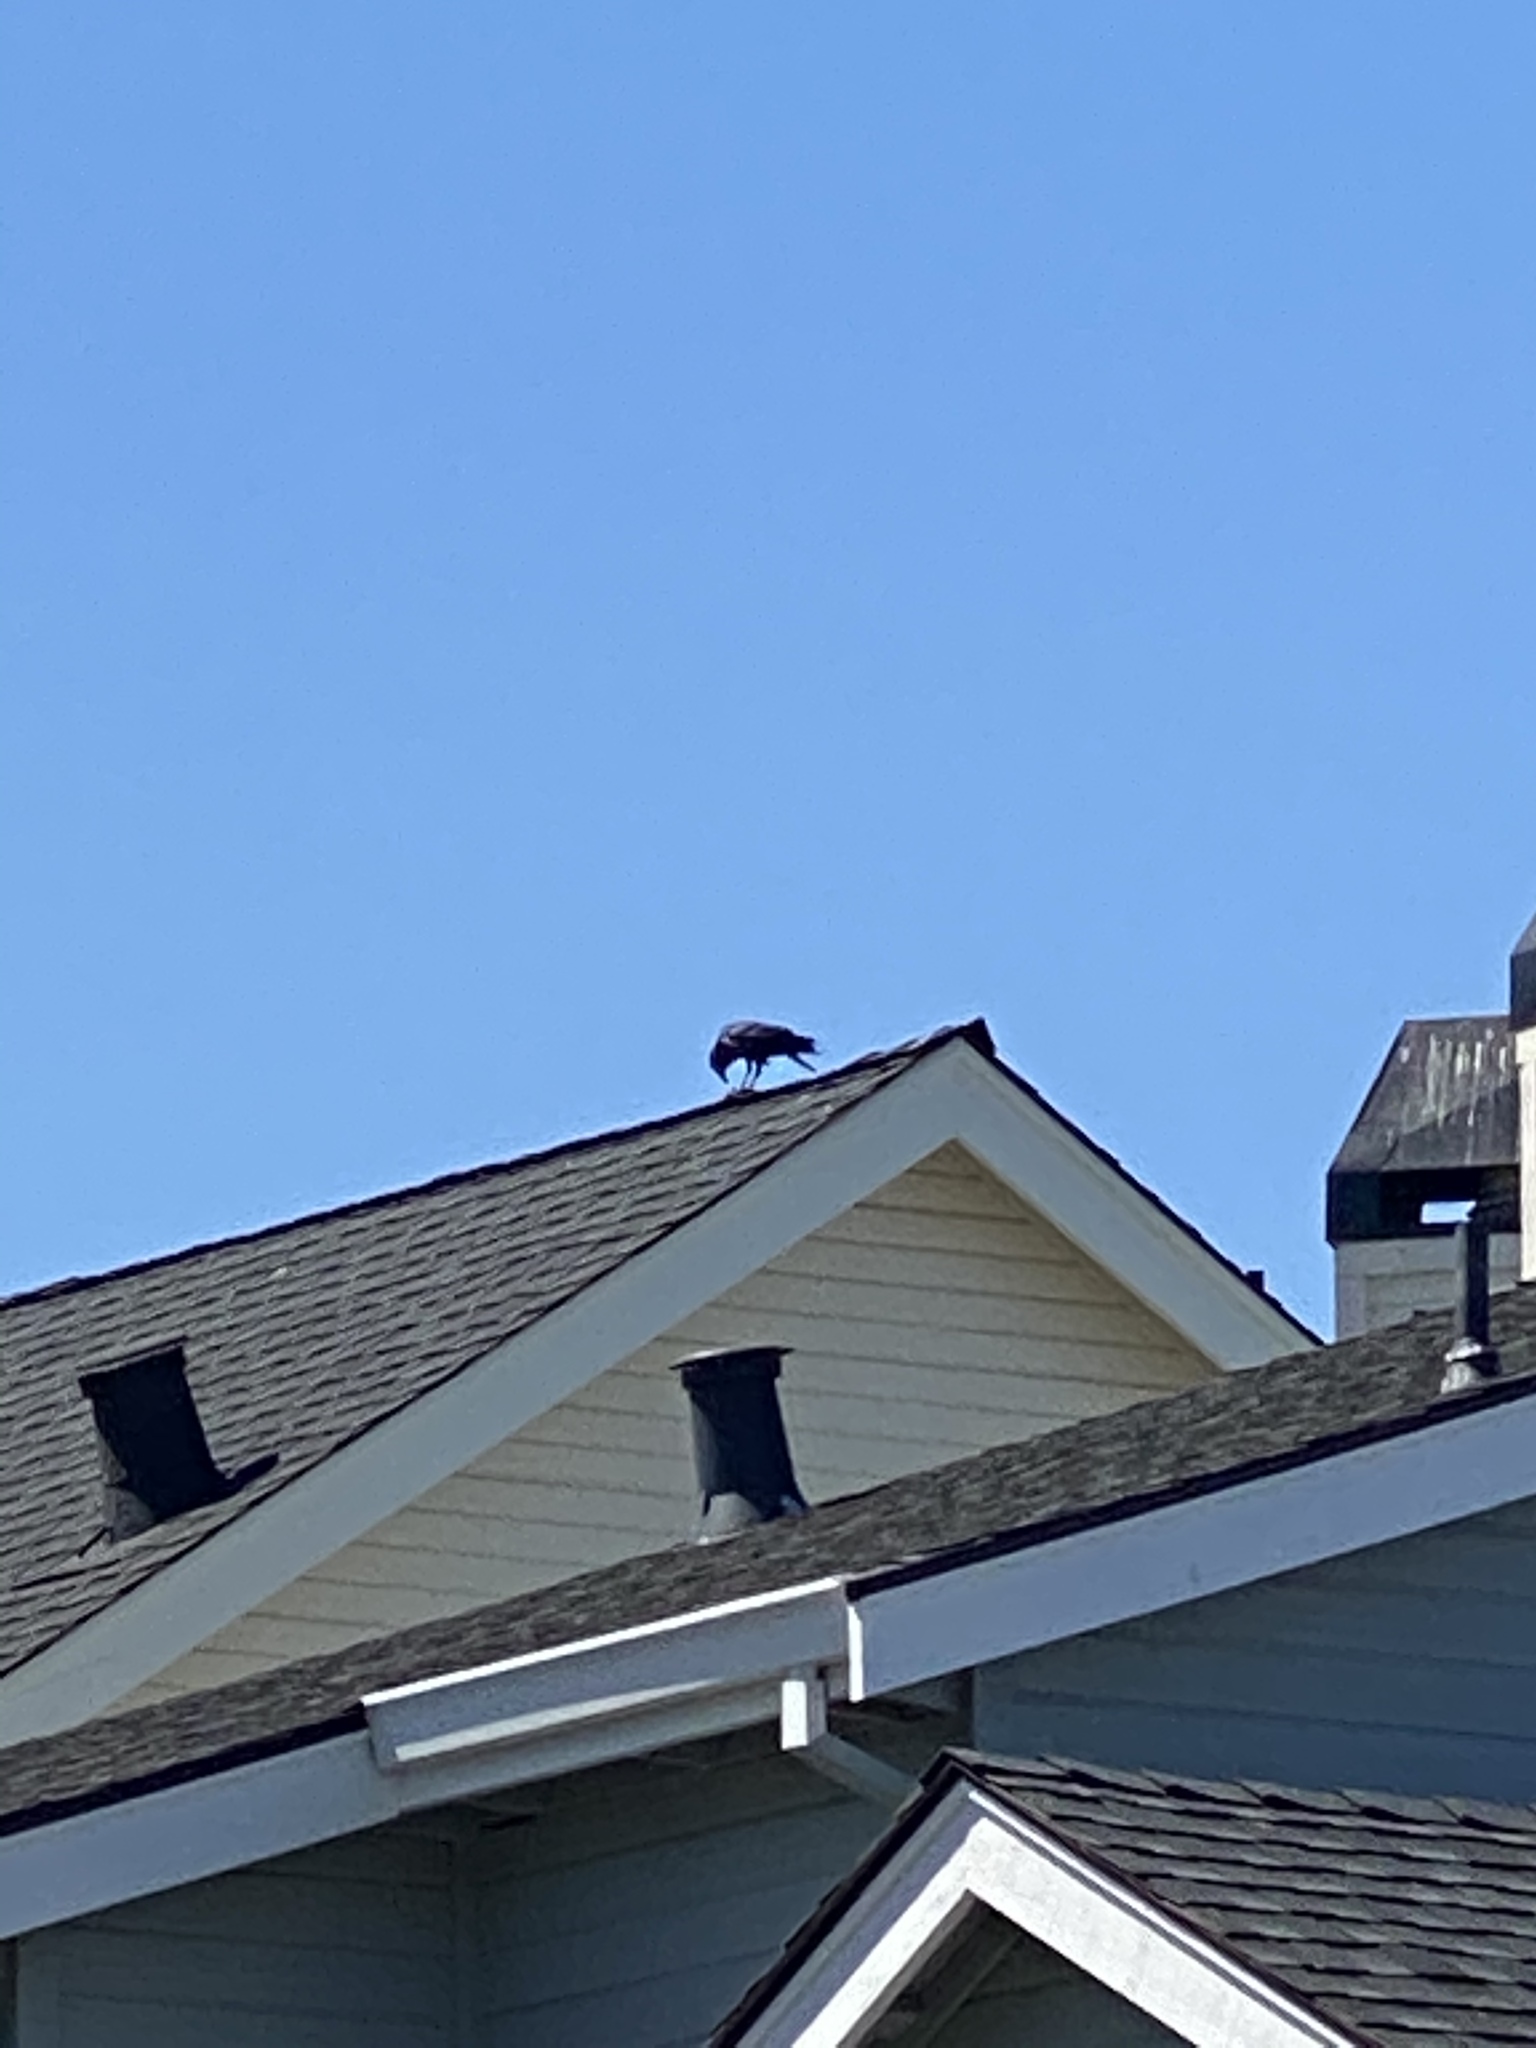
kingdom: Animalia
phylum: Chordata
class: Aves
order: Passeriformes
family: Corvidae
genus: Corvus
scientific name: Corvus brachyrhynchos
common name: American crow
